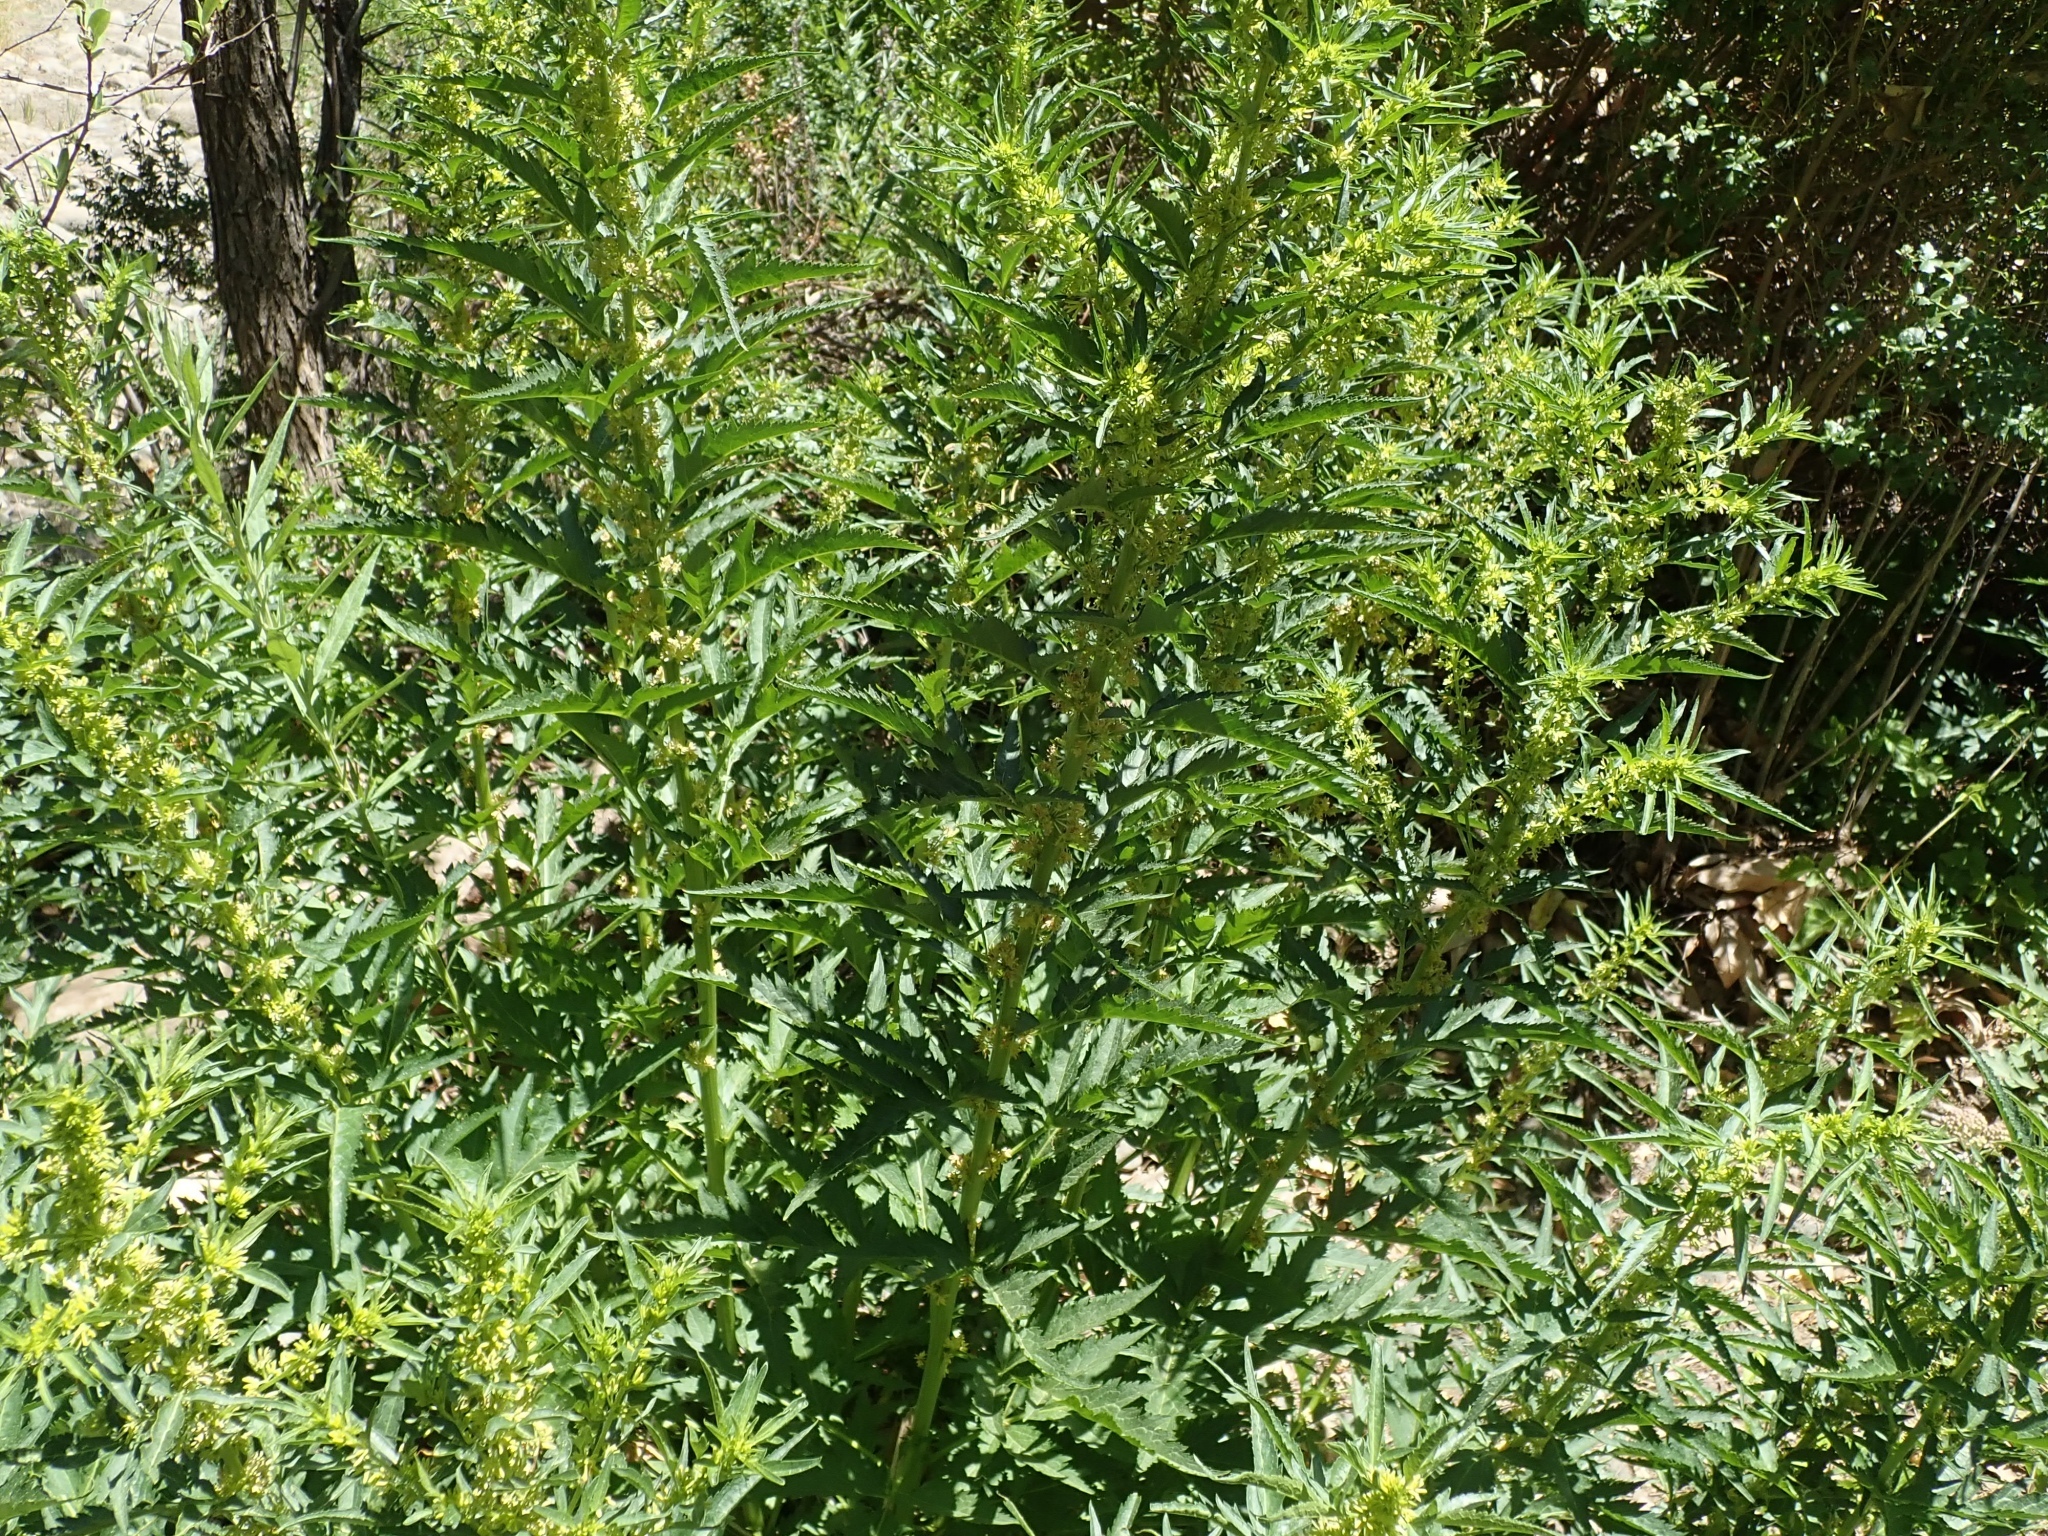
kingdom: Plantae
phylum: Tracheophyta
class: Magnoliopsida
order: Cucurbitales
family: Datiscaceae
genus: Datisca
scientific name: Datisca glomerata
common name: Durango-root
